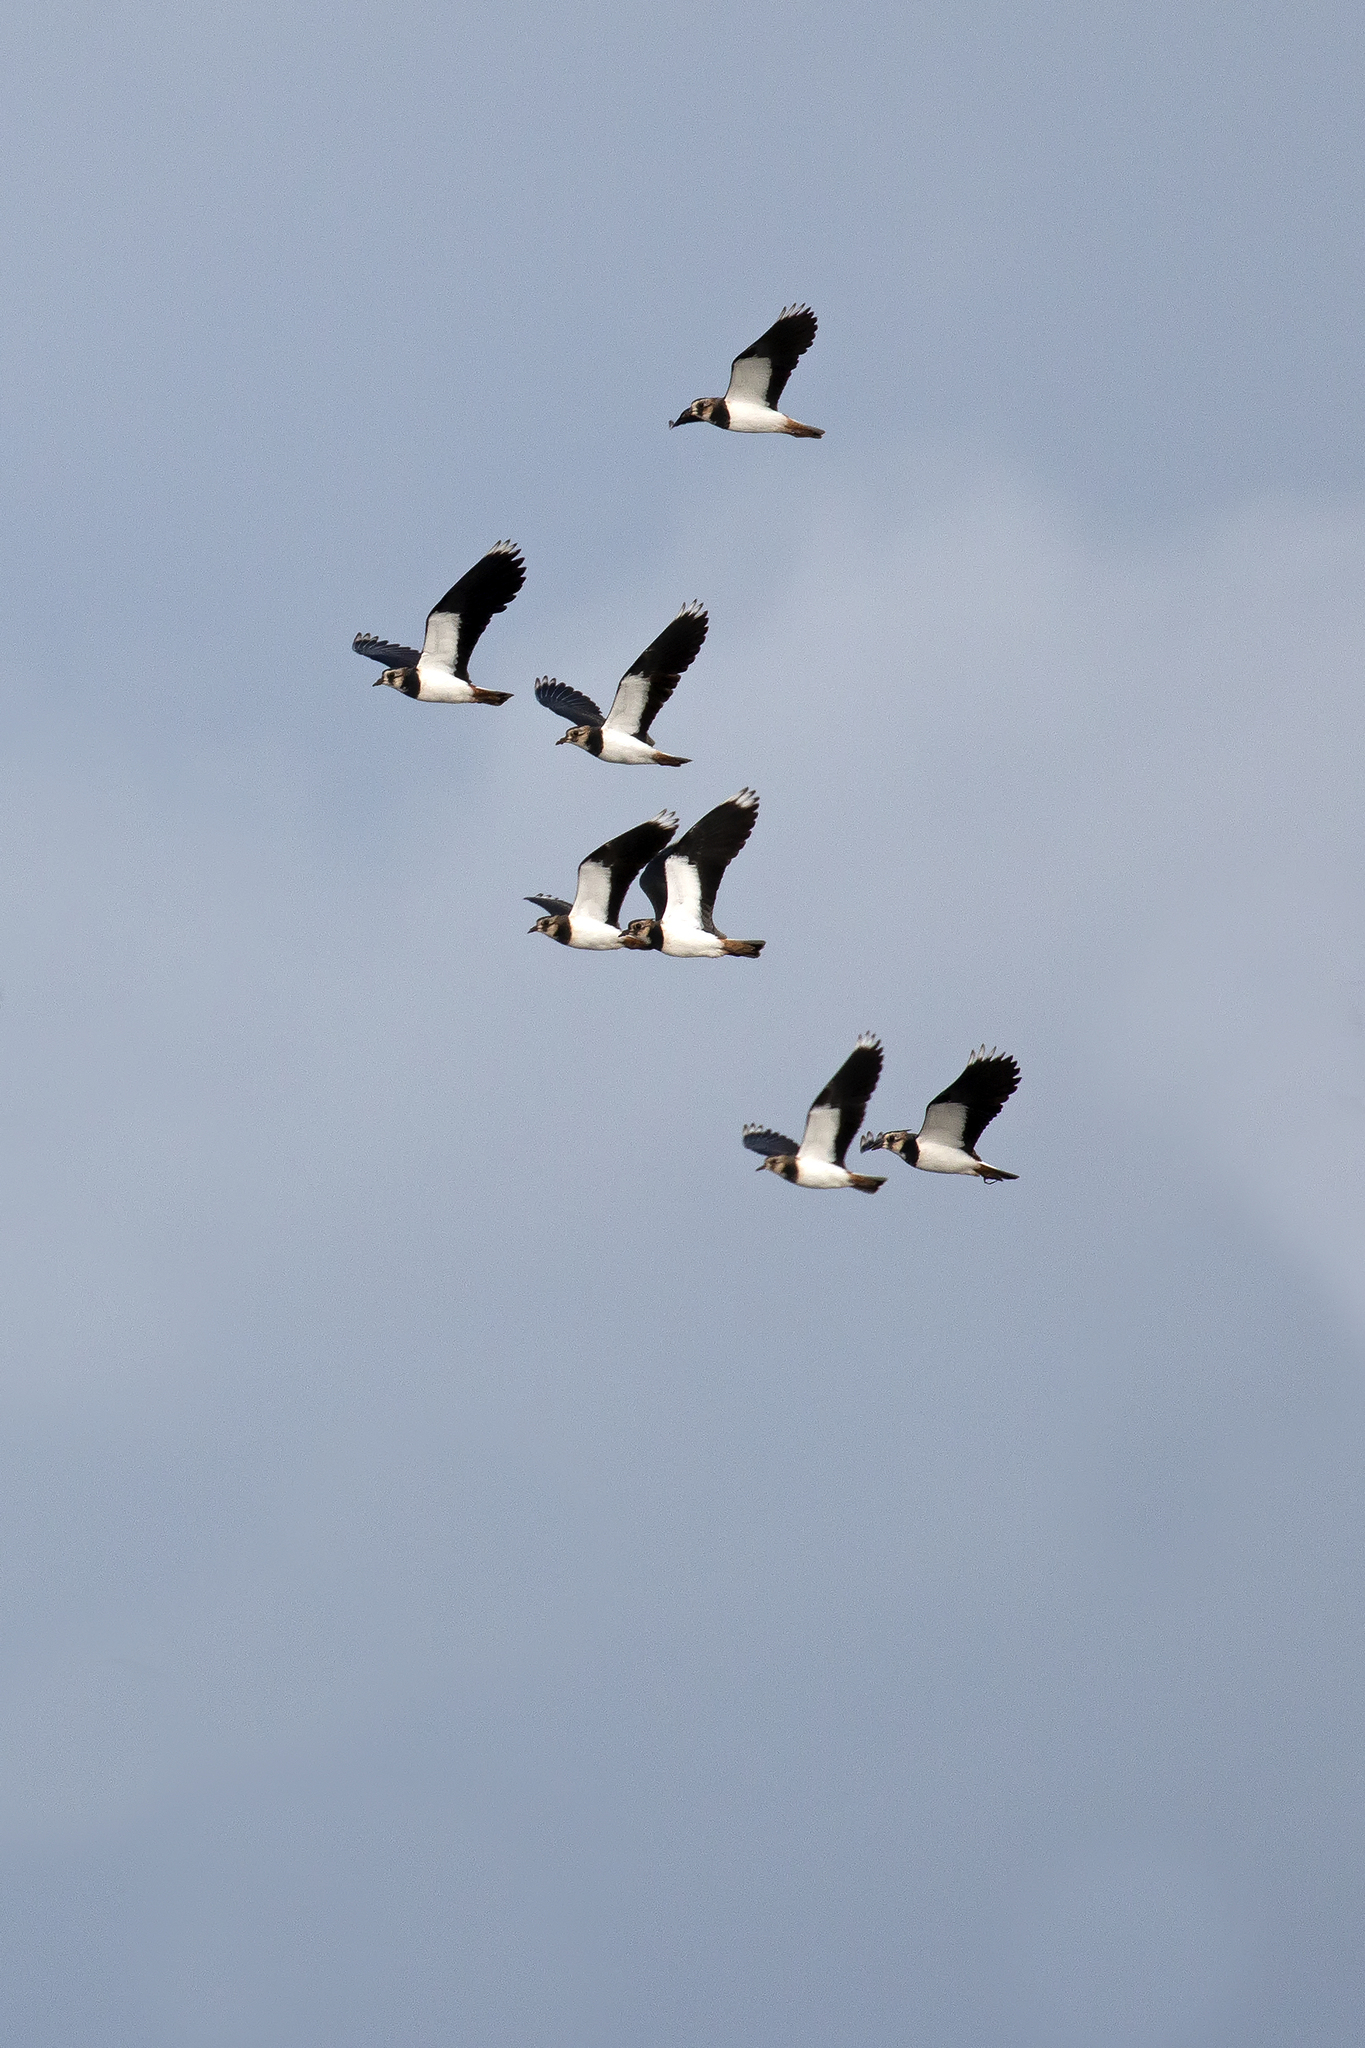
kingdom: Animalia
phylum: Chordata
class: Aves
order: Charadriiformes
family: Charadriidae
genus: Vanellus
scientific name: Vanellus vanellus
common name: Northern lapwing
